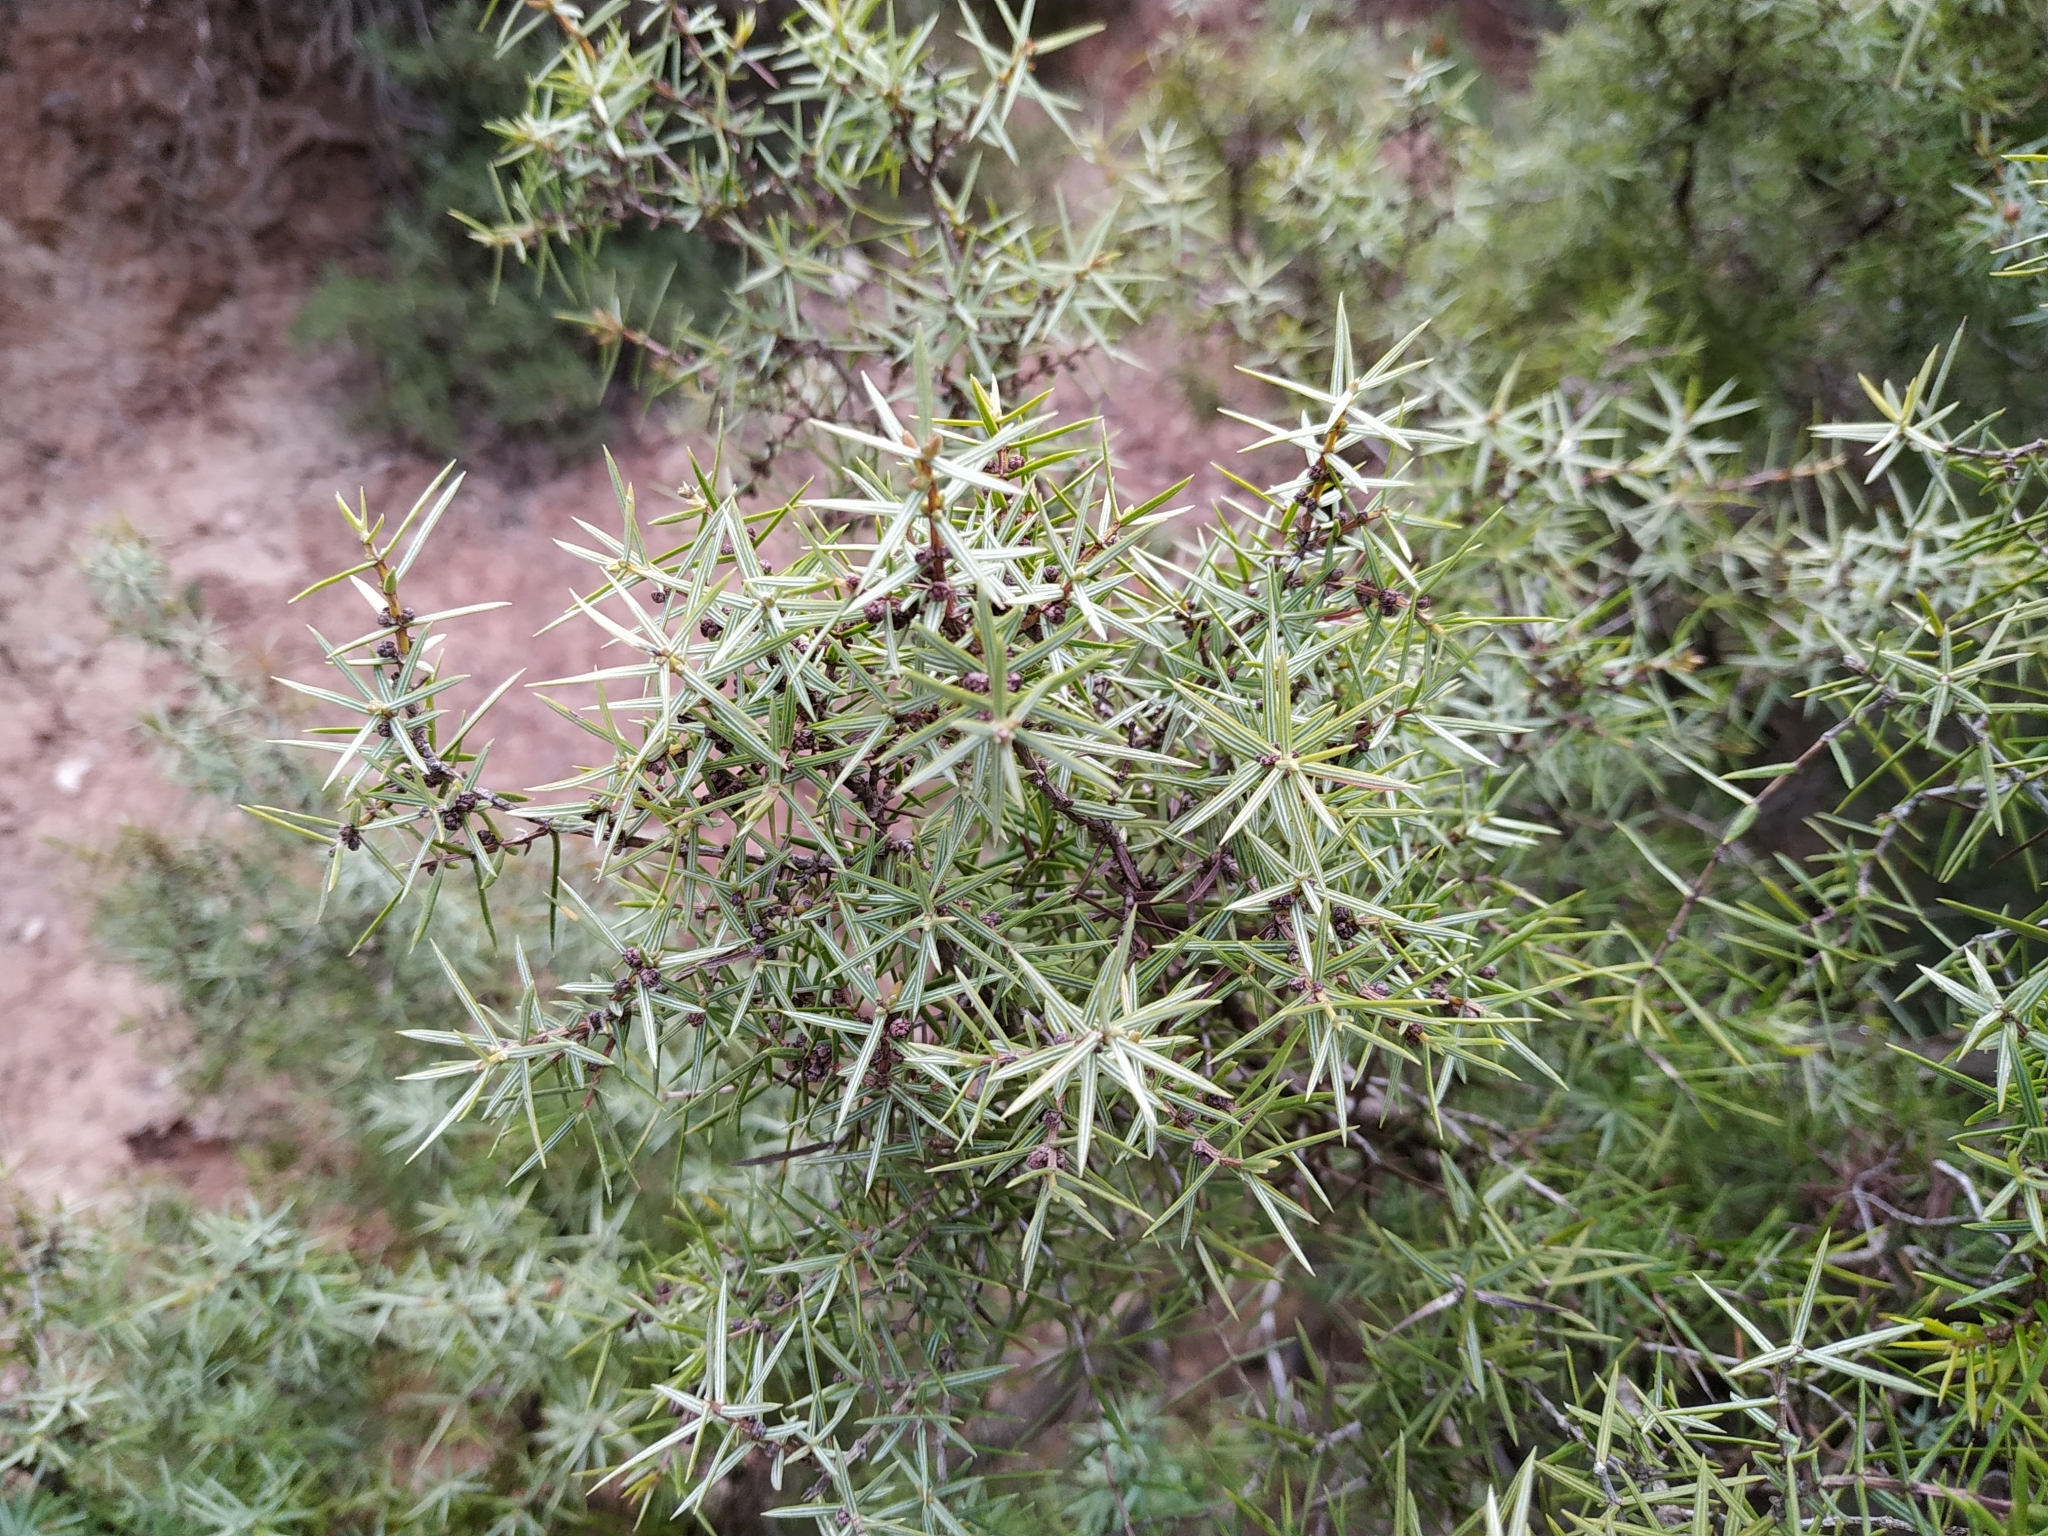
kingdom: Plantae
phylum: Tracheophyta
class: Pinopsida
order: Pinales
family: Cupressaceae
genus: Juniperus
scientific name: Juniperus oxycedrus
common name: Prickly juniper
